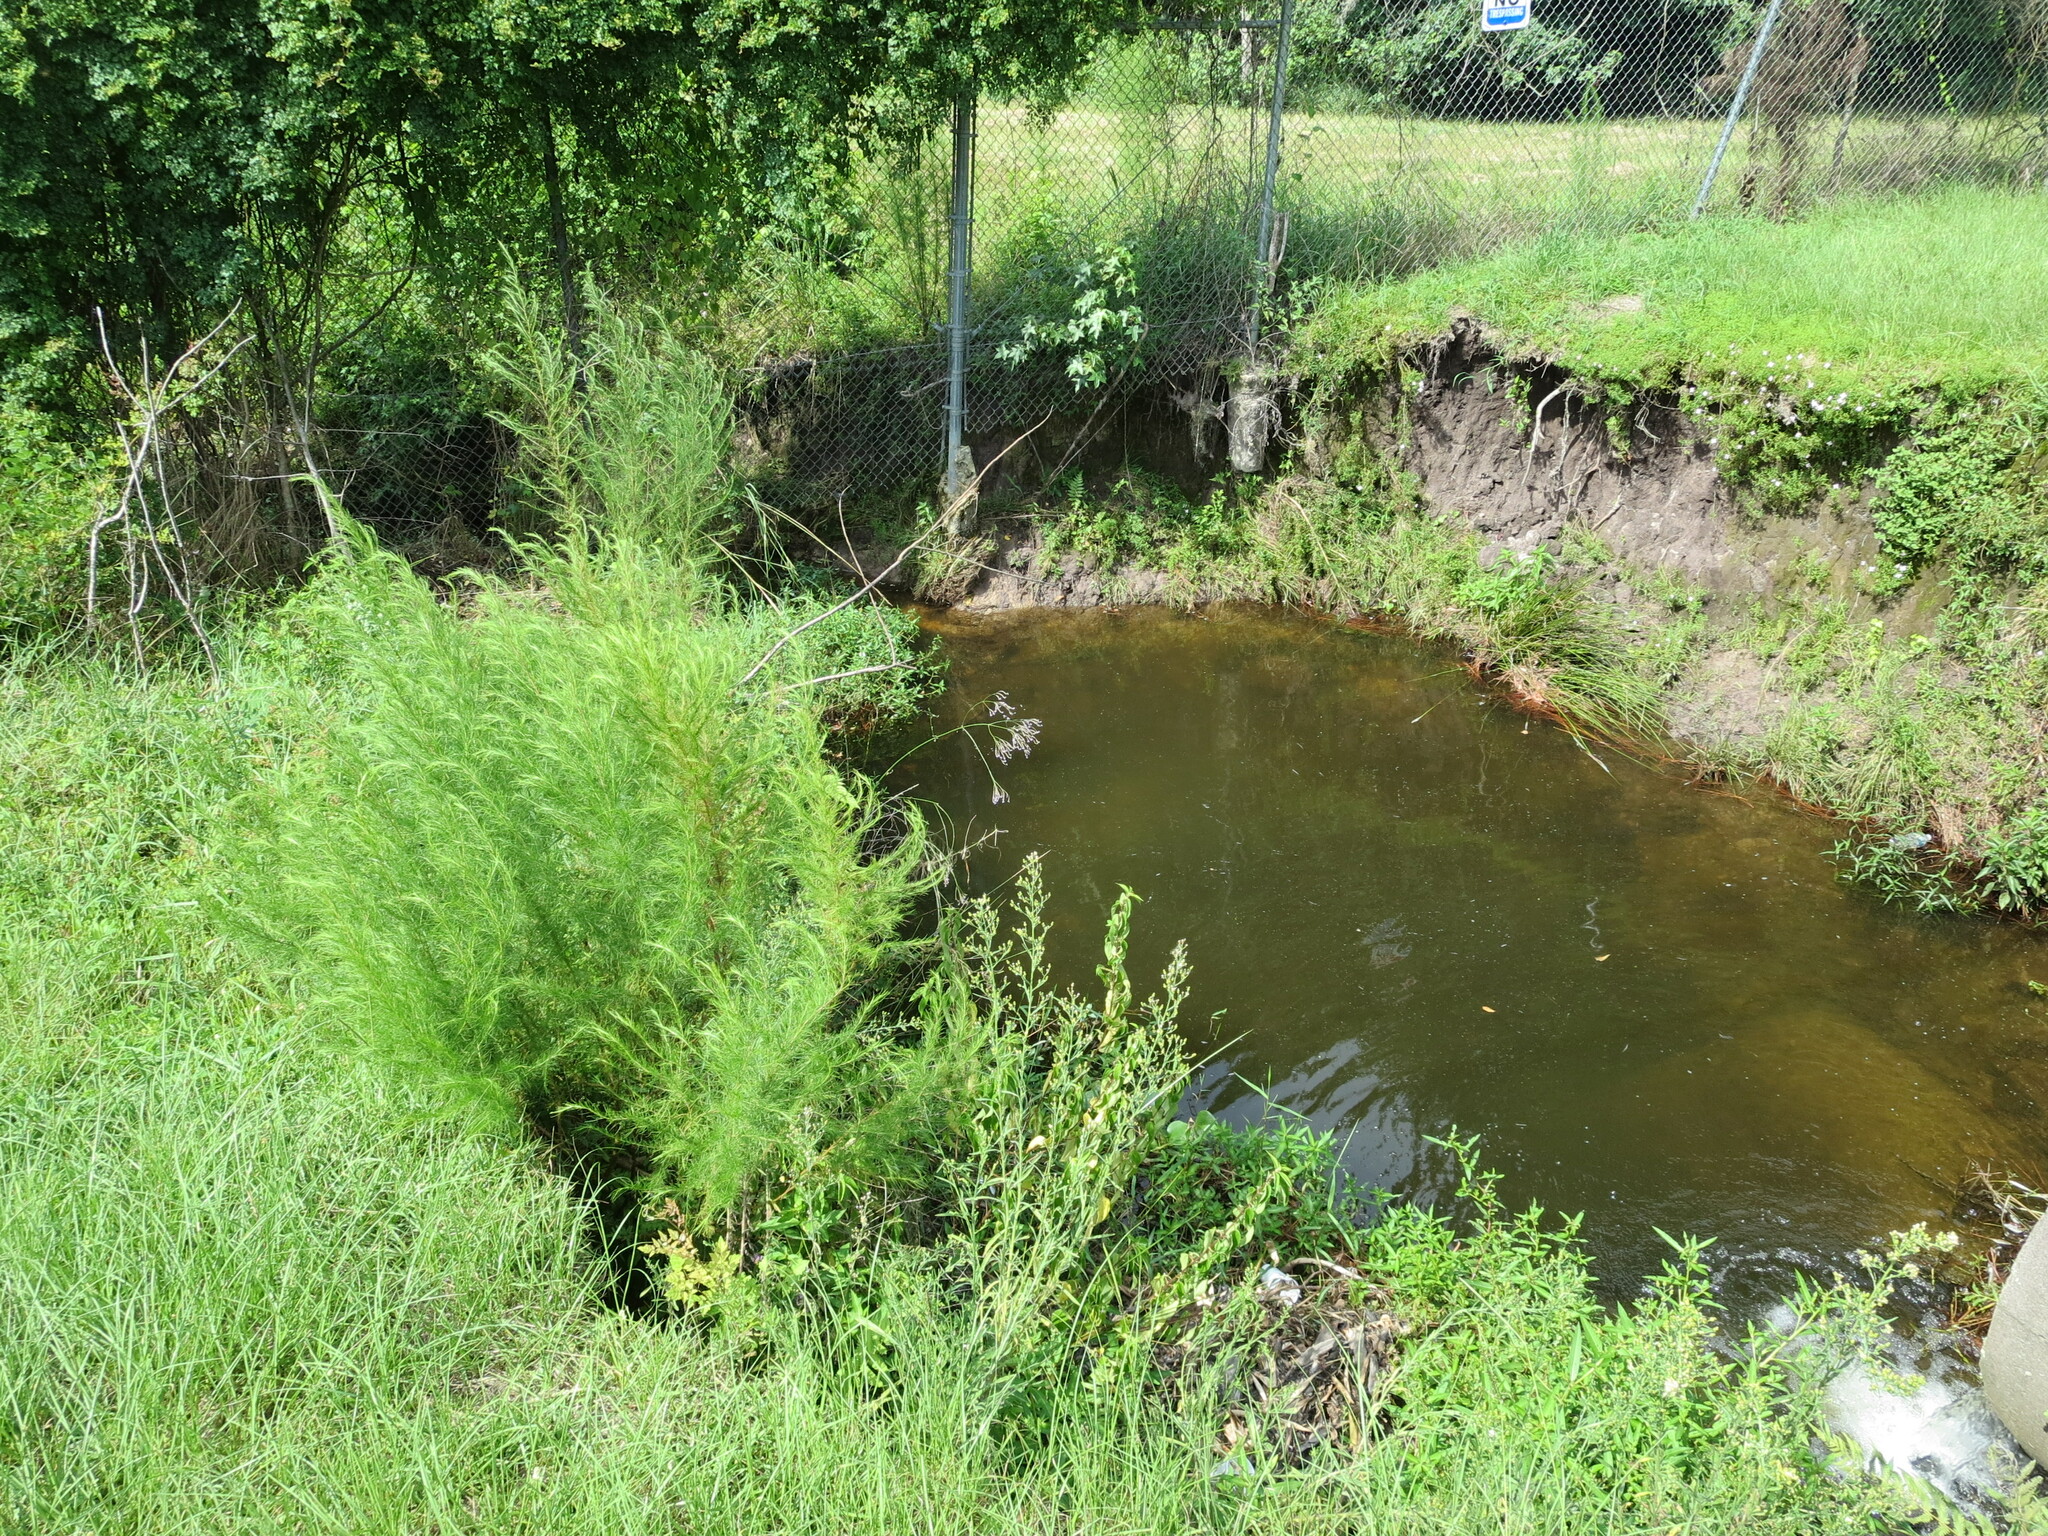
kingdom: Plantae
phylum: Tracheophyta
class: Magnoliopsida
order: Asterales
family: Asteraceae
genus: Eupatorium
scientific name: Eupatorium capillifolium
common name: Dog-fennel
